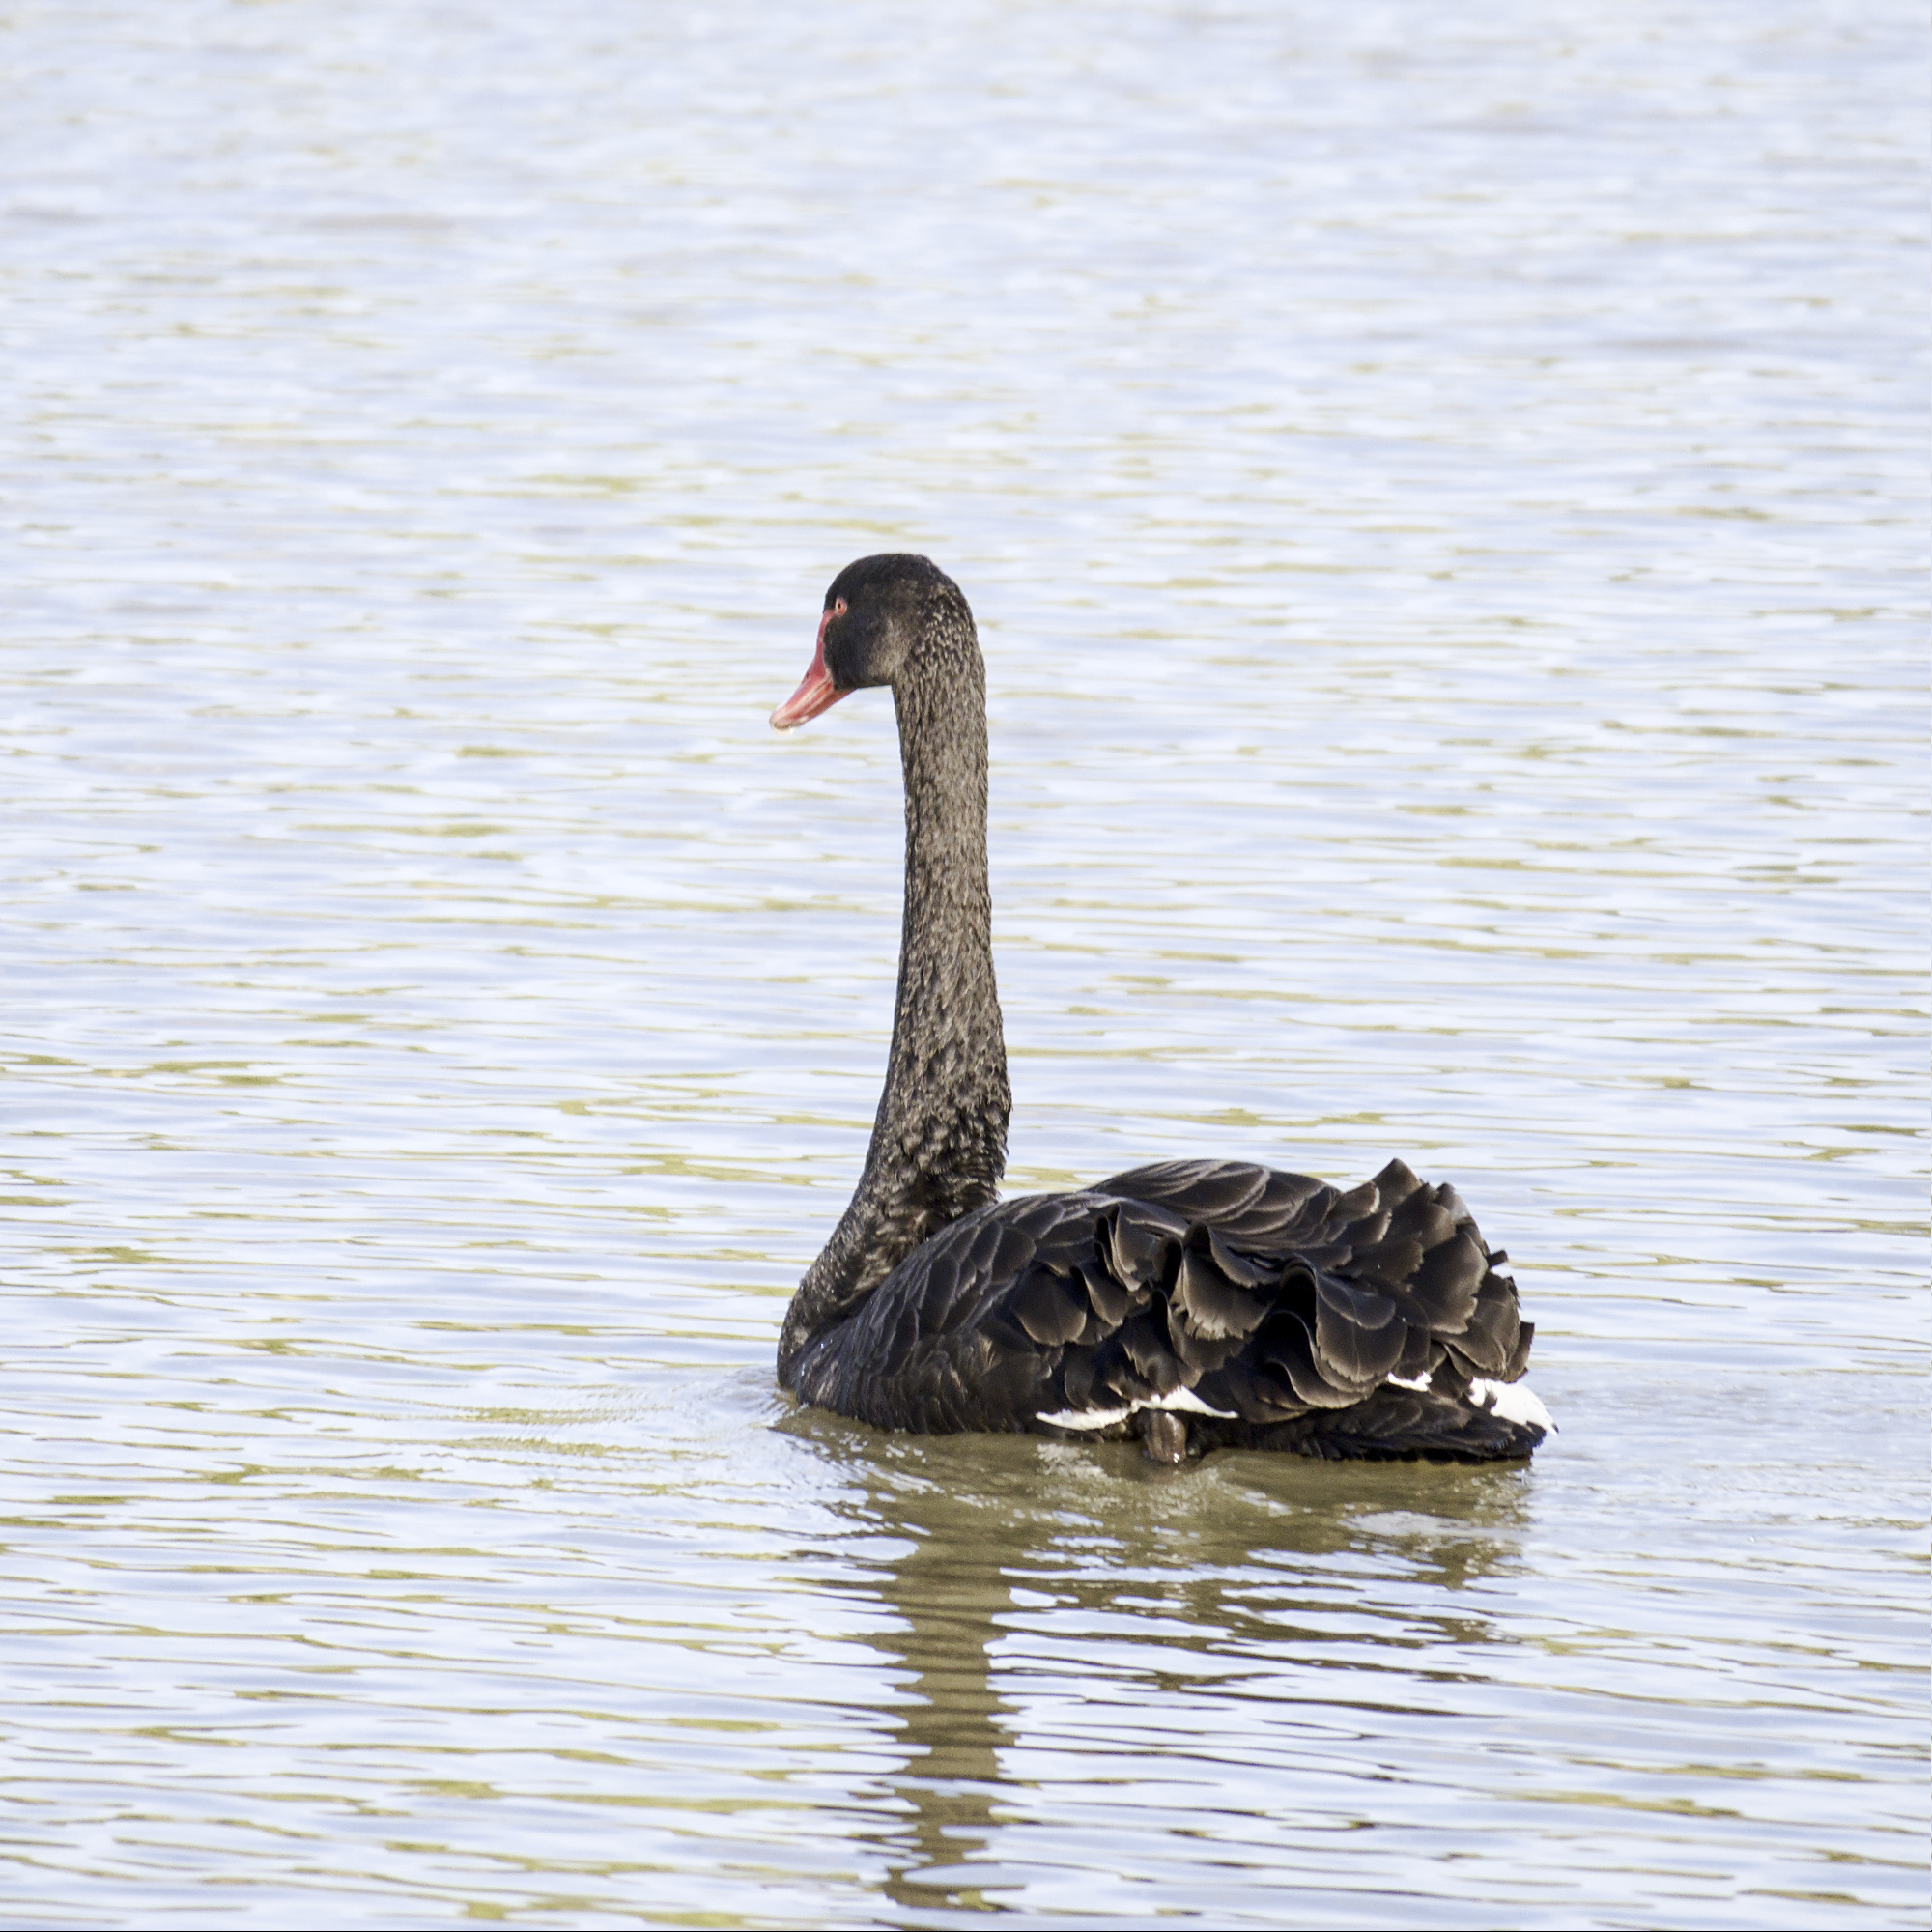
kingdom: Animalia
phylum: Chordata
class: Aves
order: Anseriformes
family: Anatidae
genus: Cygnus
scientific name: Cygnus atratus
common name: Black swan
